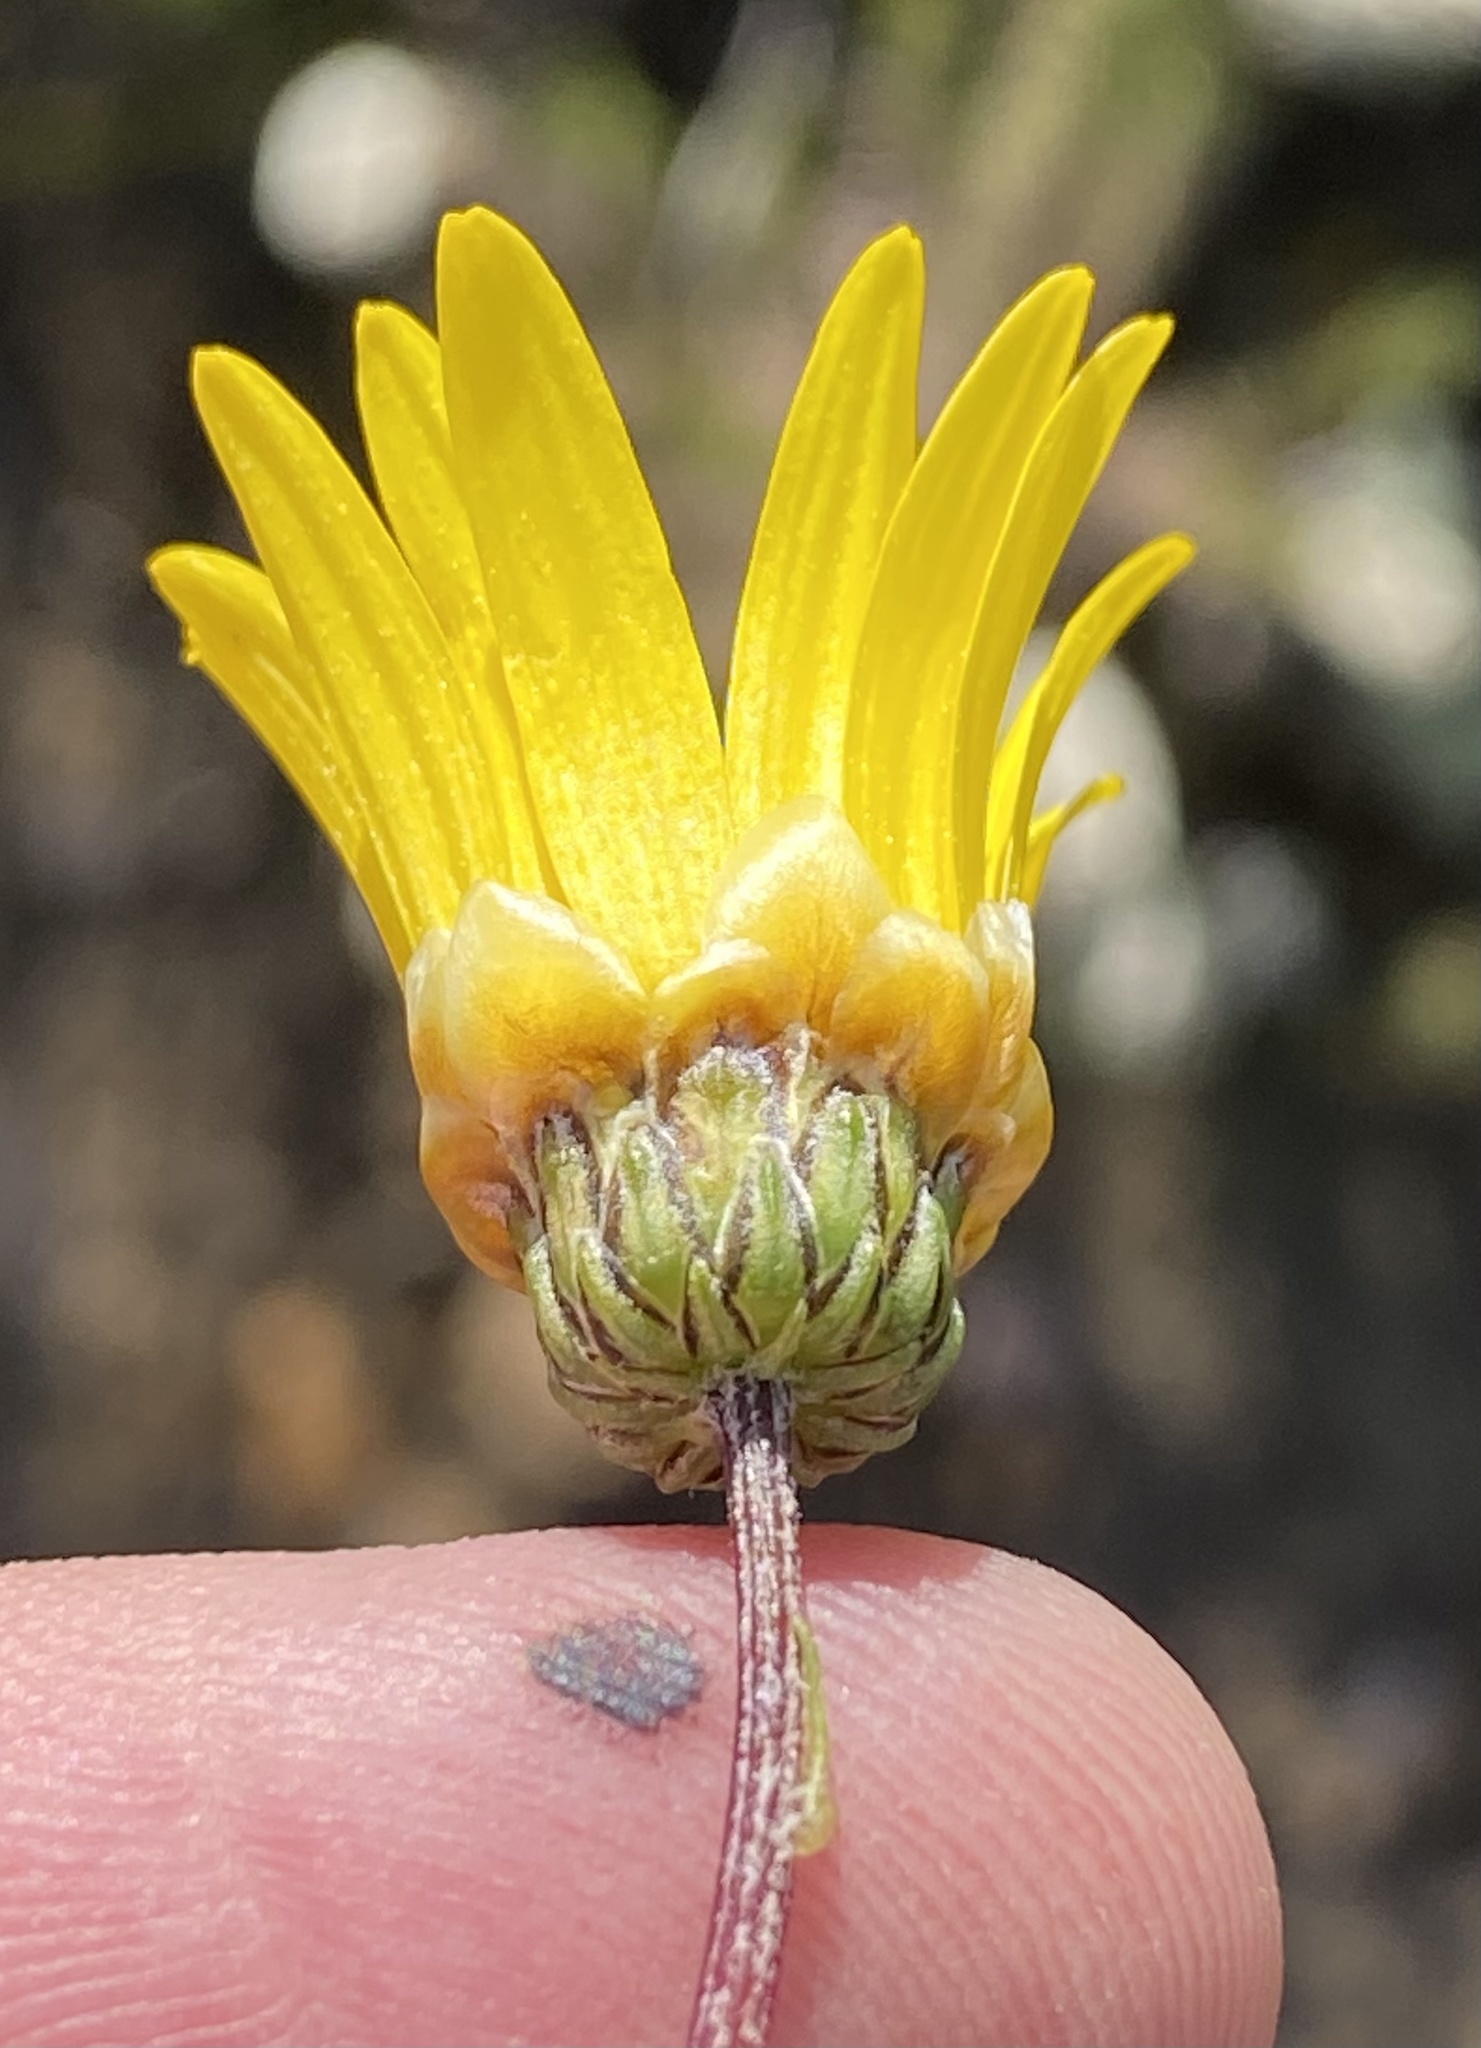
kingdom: Plantae
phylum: Tracheophyta
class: Magnoliopsida
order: Asterales
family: Asteraceae
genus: Ursinia
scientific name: Ursinia paleacea
